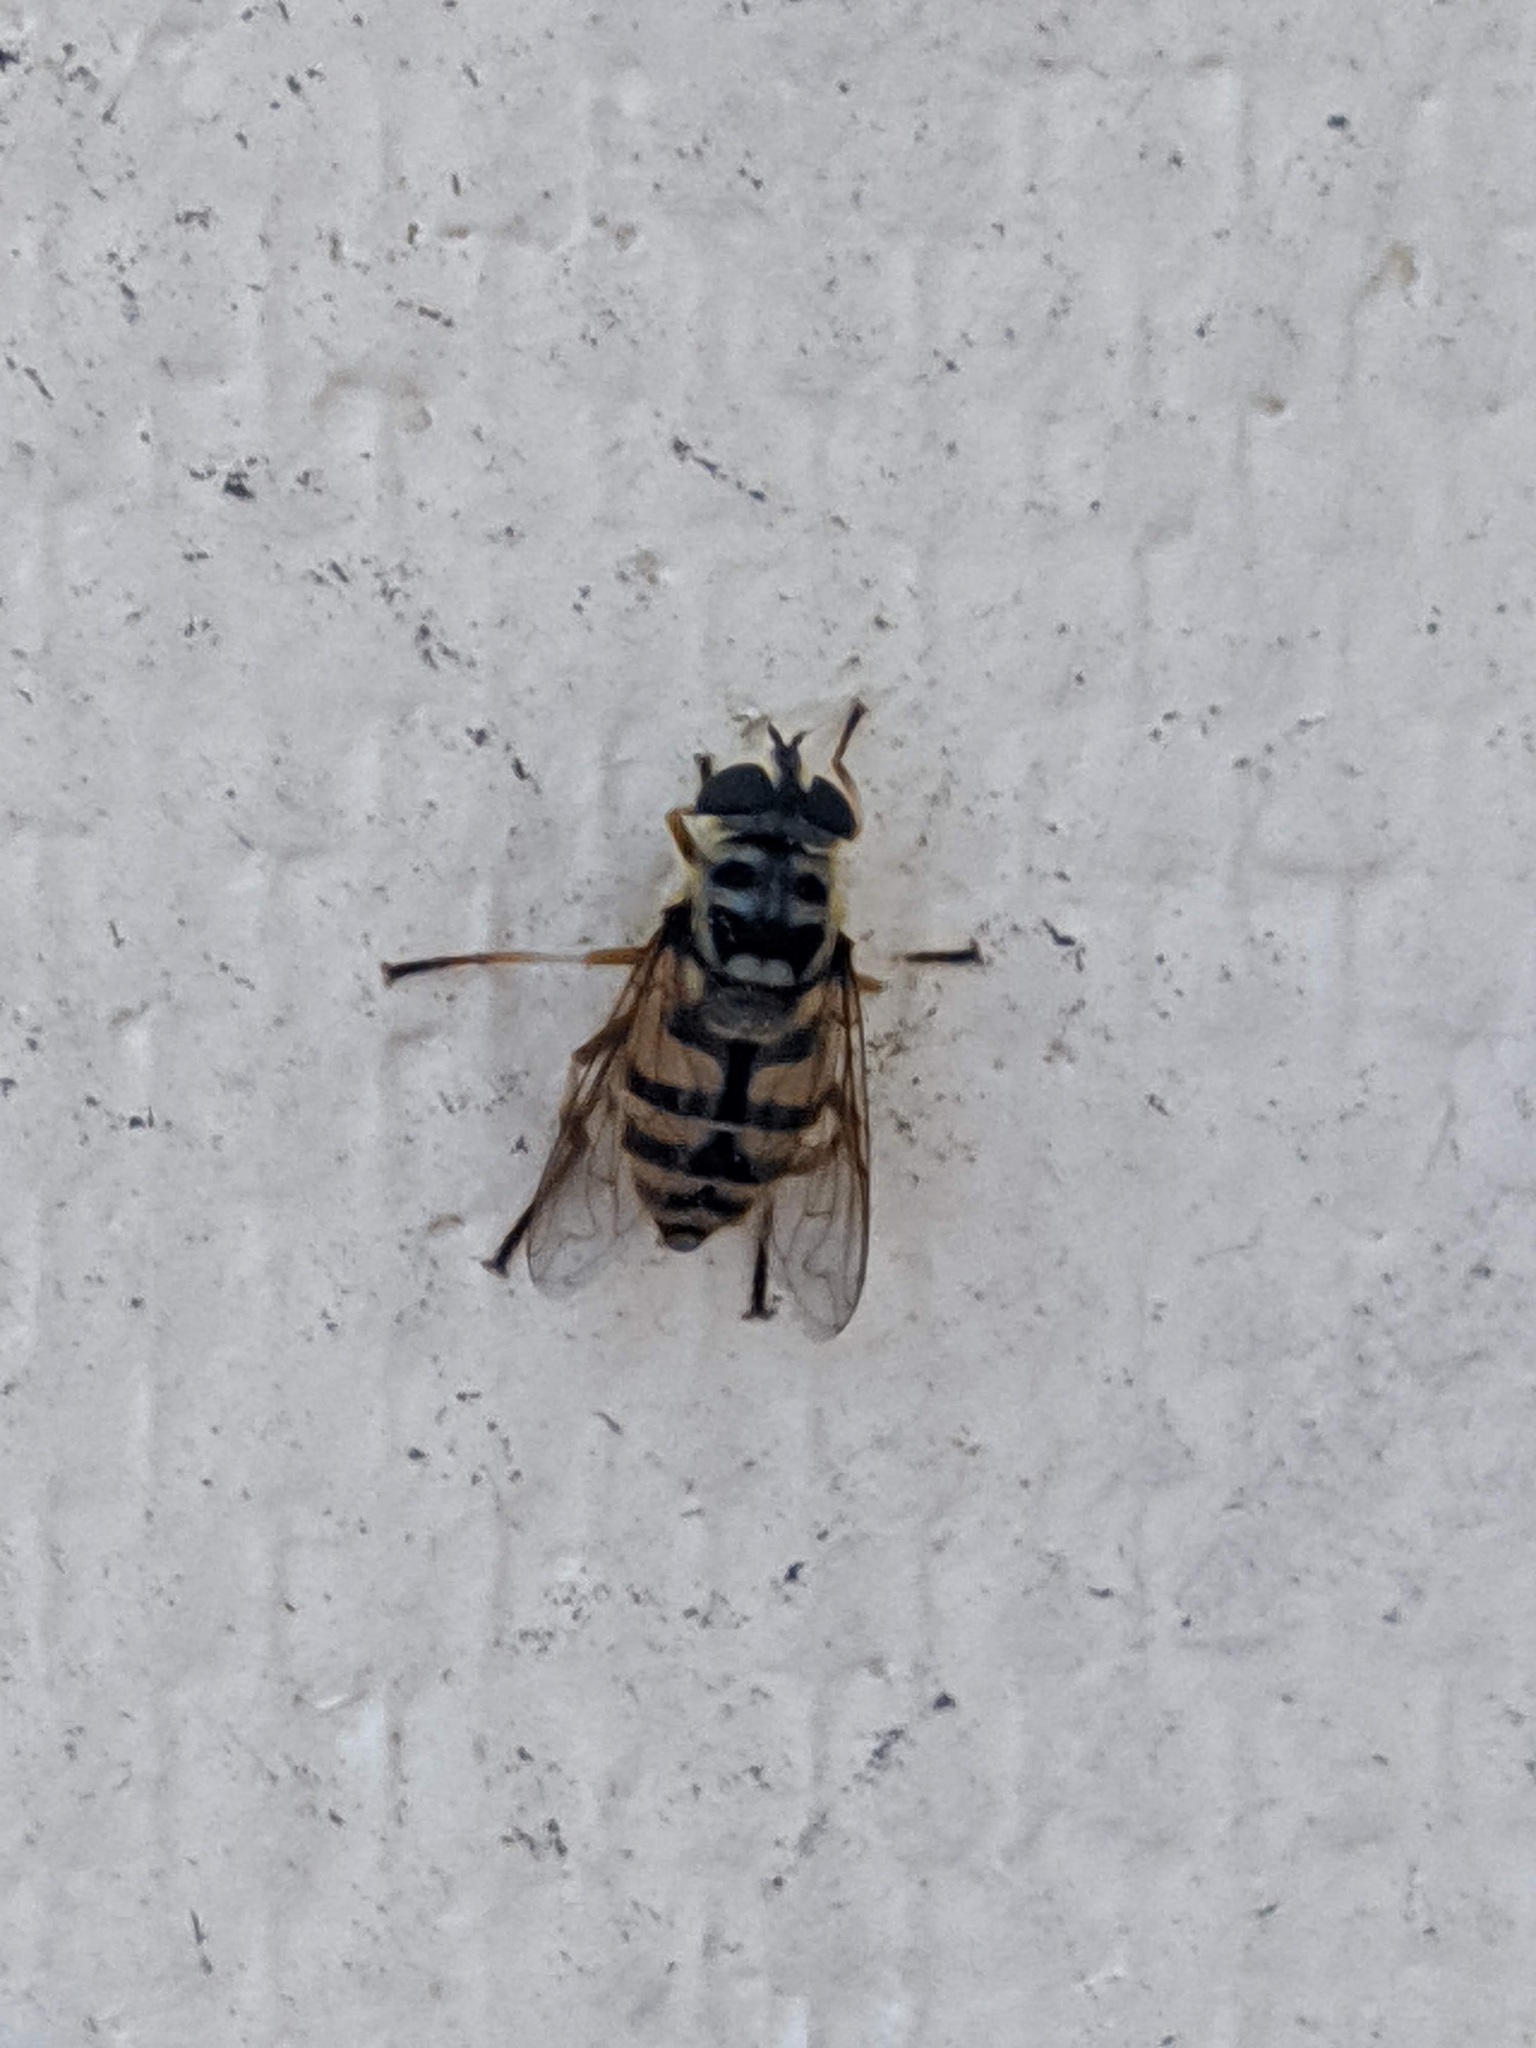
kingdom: Animalia
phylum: Arthropoda
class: Insecta
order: Diptera
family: Syrphidae
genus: Myathropa
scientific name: Myathropa florea
